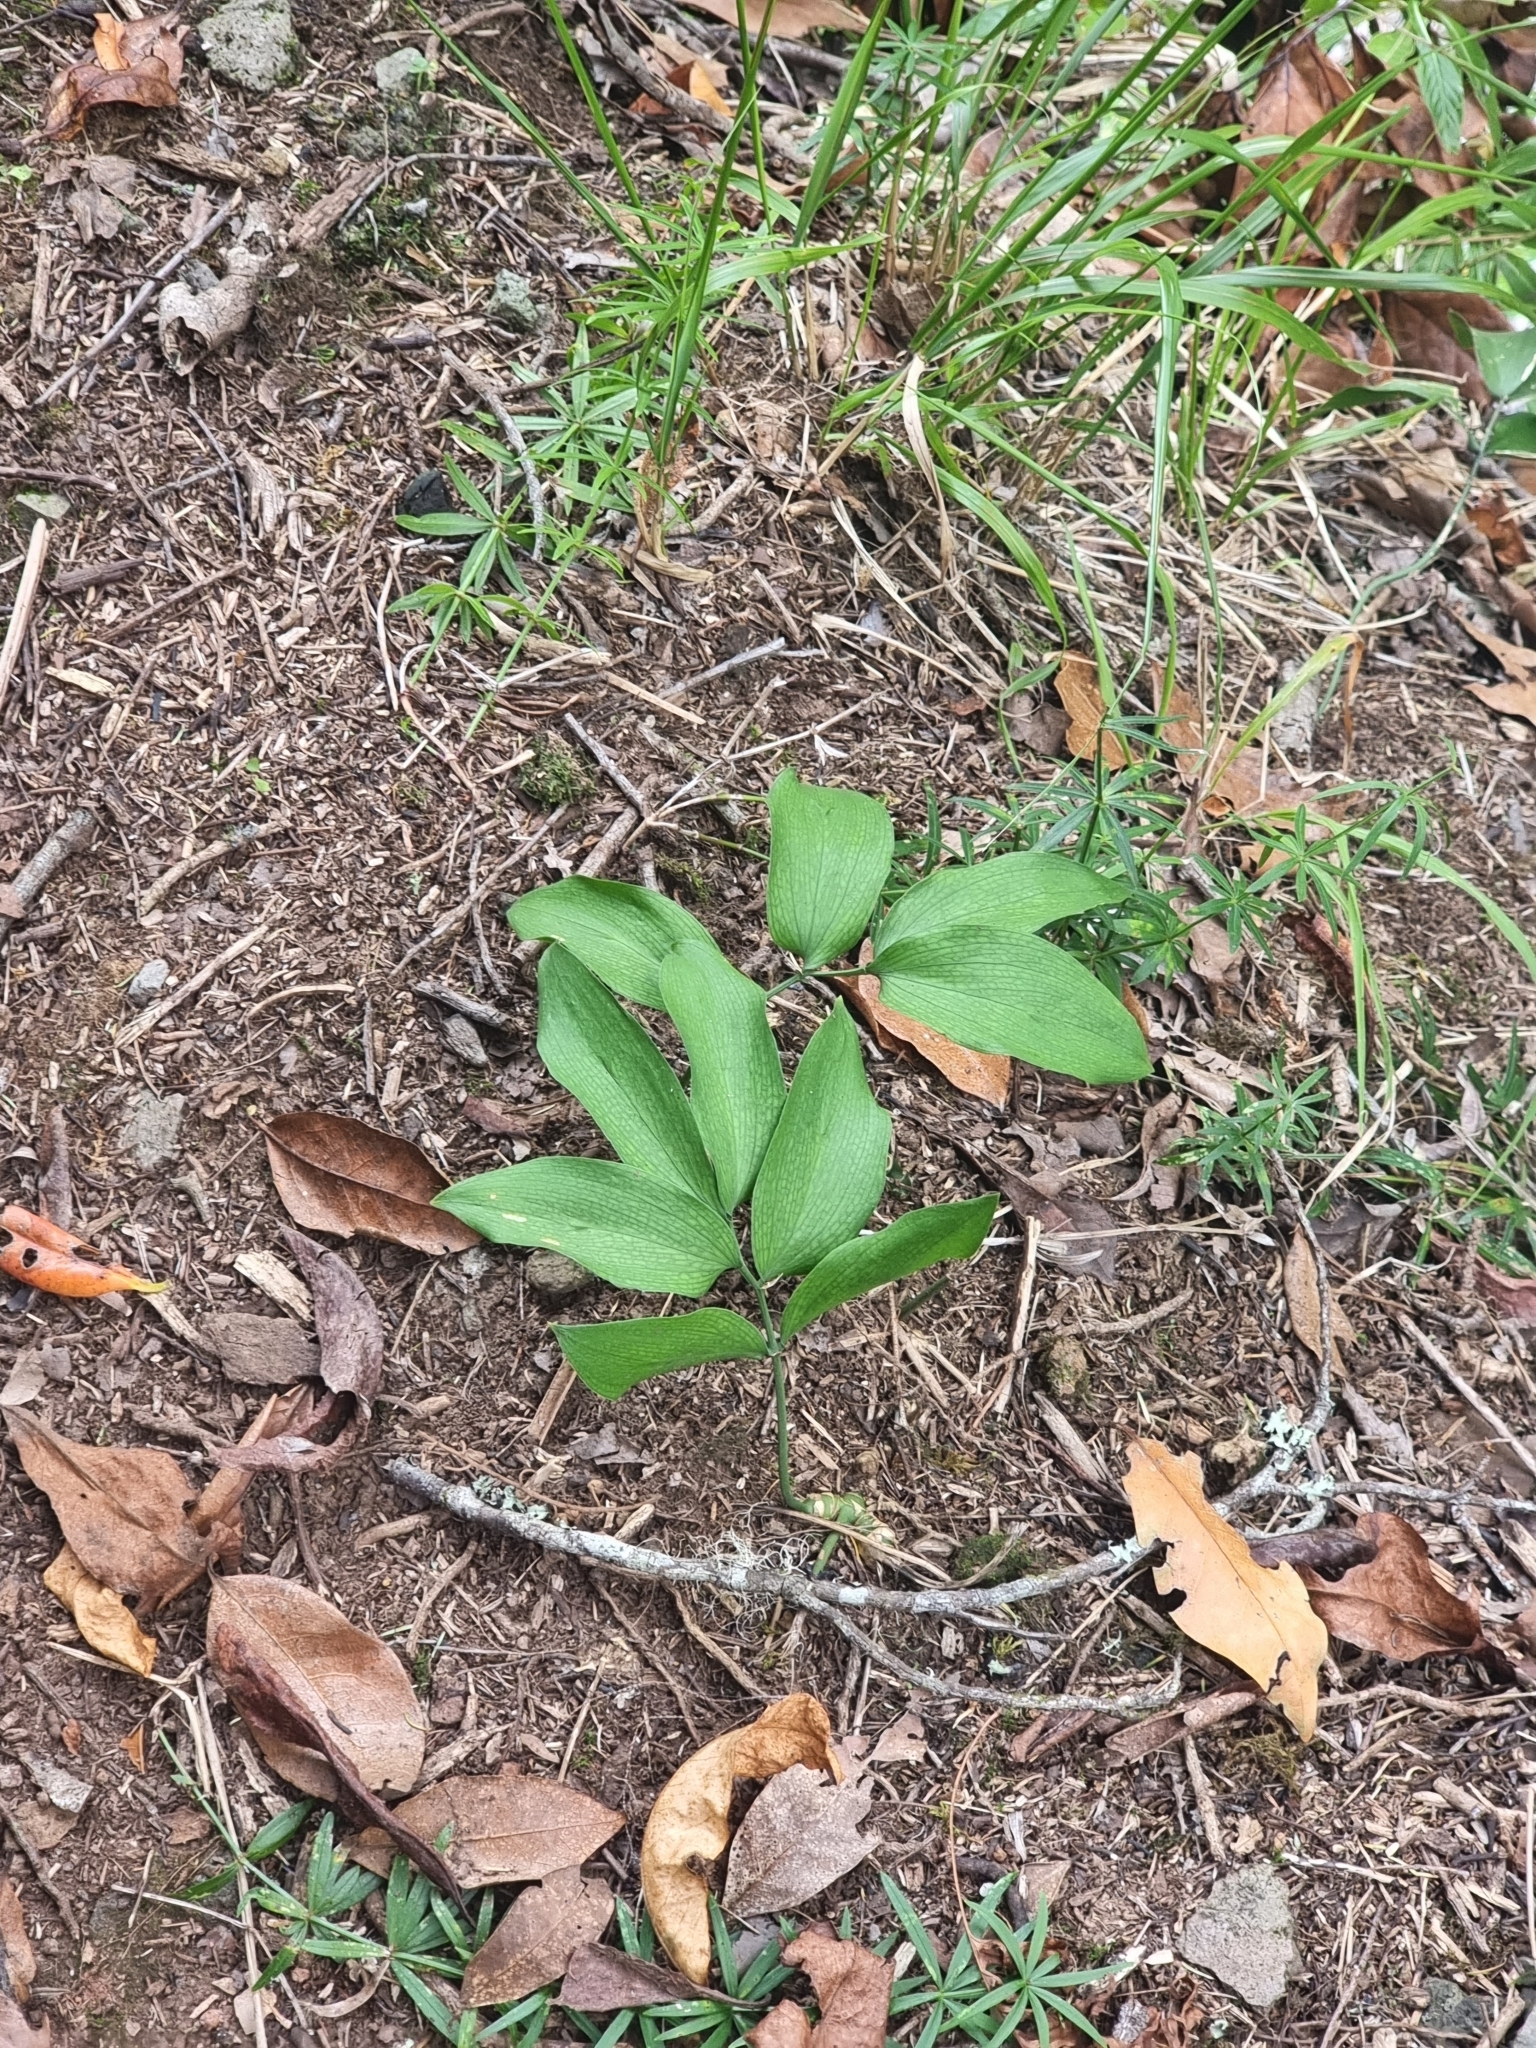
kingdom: Plantae
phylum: Tracheophyta
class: Liliopsida
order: Asparagales
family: Asparagaceae
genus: Ruscus
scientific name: Ruscus streptophyllus
